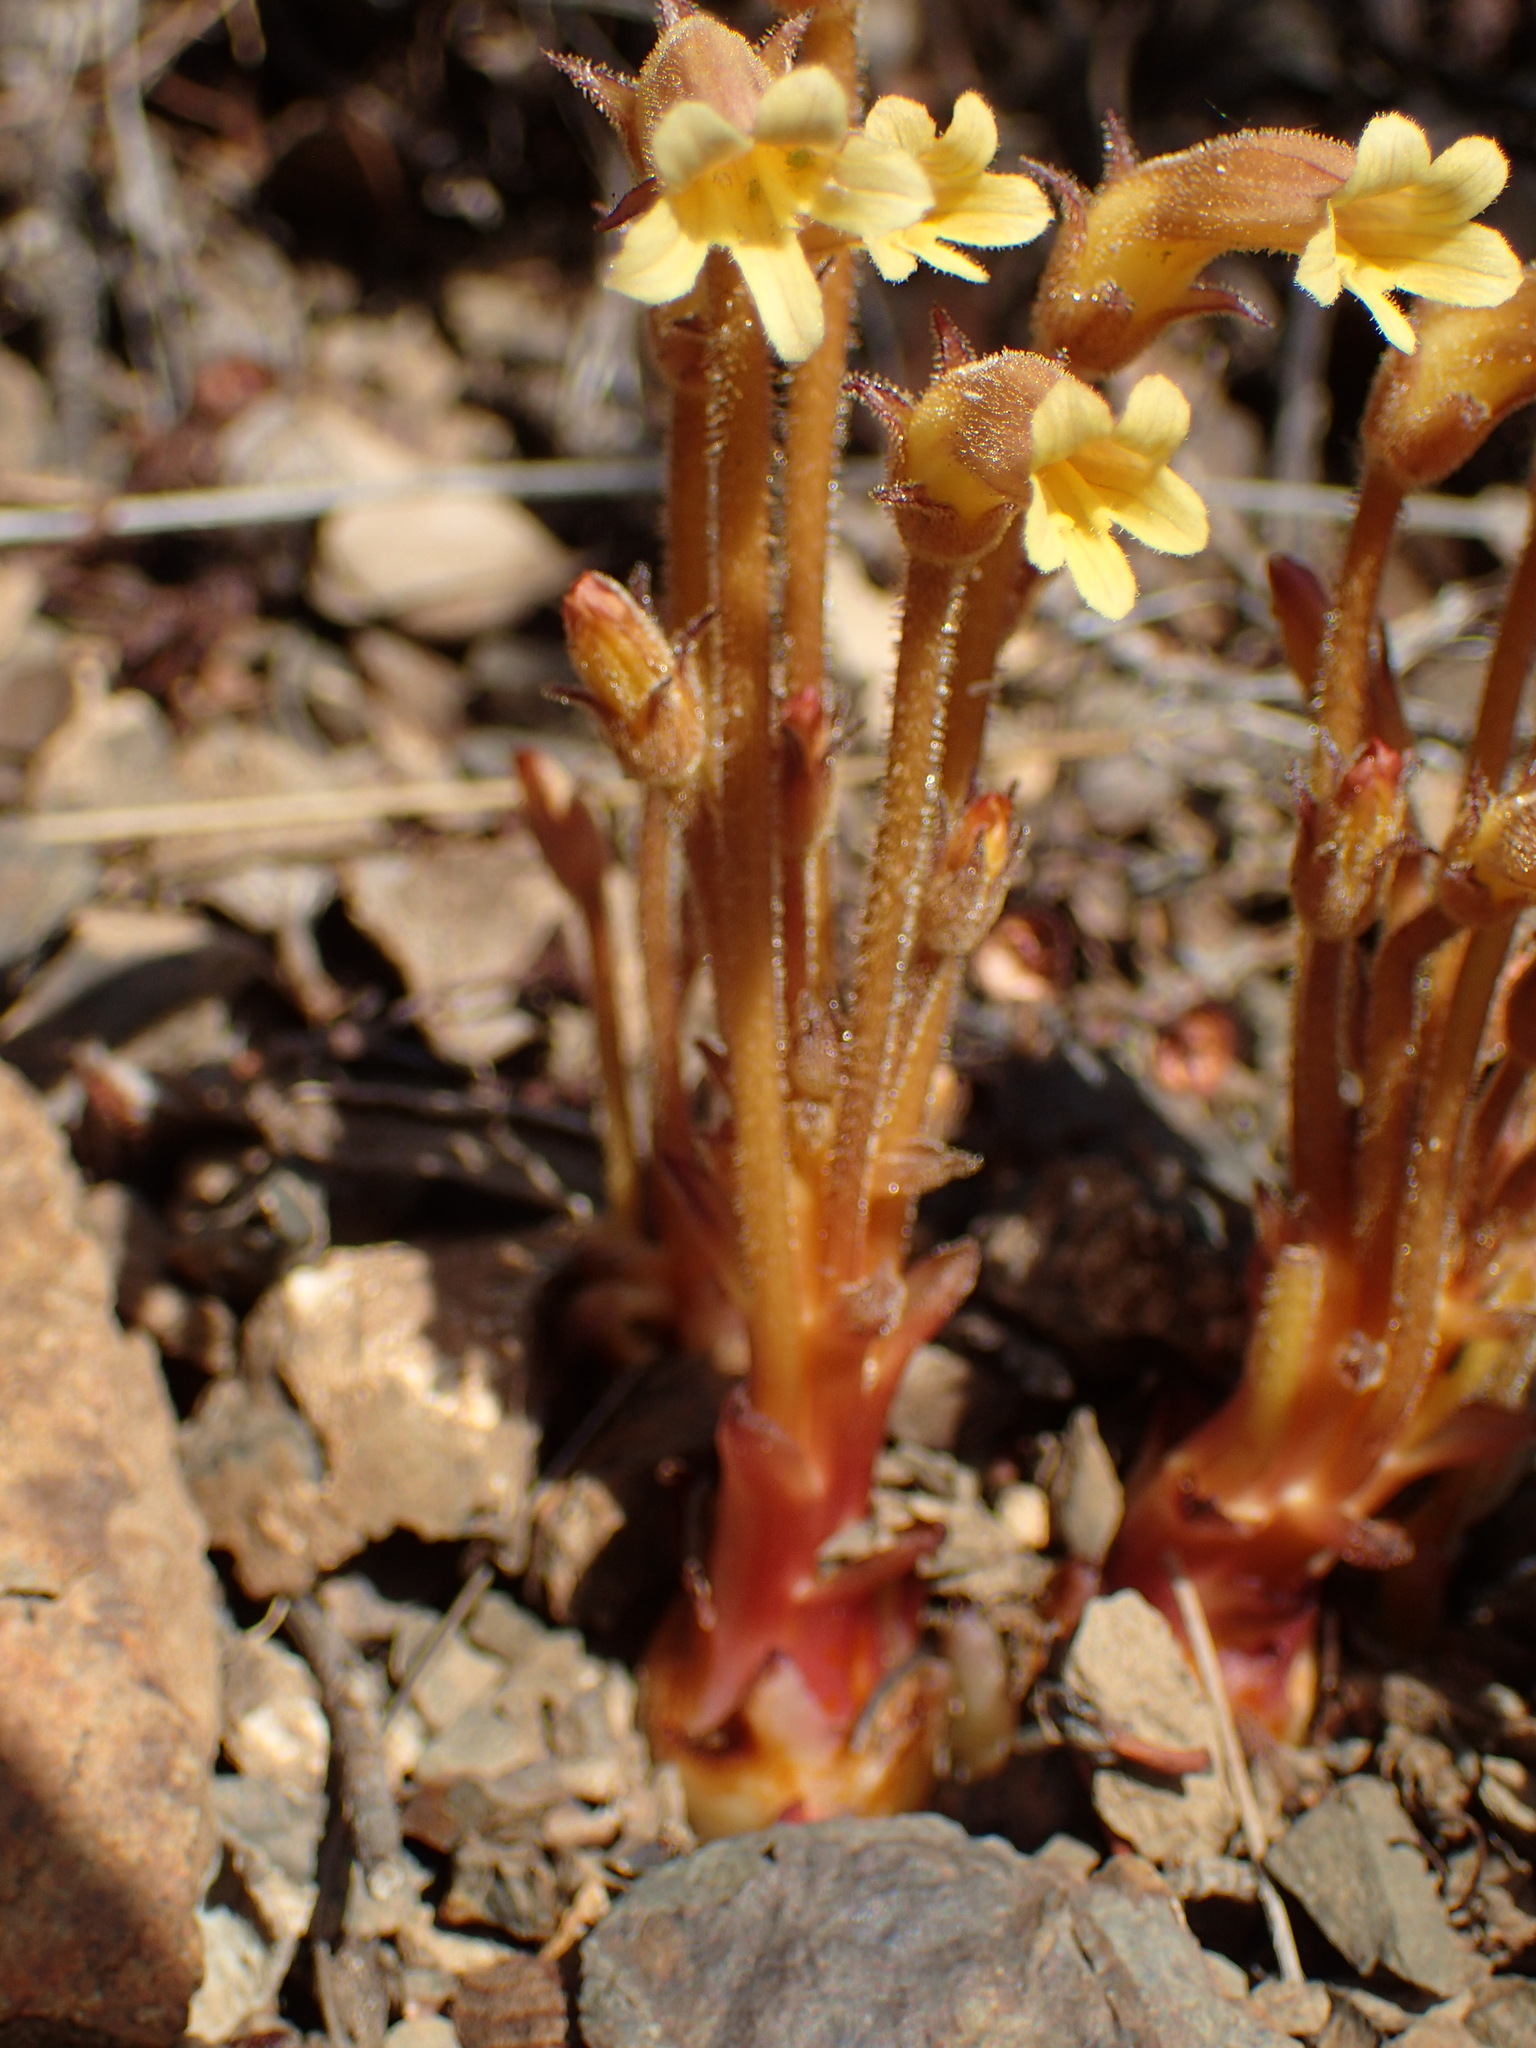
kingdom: Plantae
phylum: Tracheophyta
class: Magnoliopsida
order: Lamiales
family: Orobanchaceae
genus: Aphyllon
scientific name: Aphyllon franciscanum
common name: San francisco broomrape
